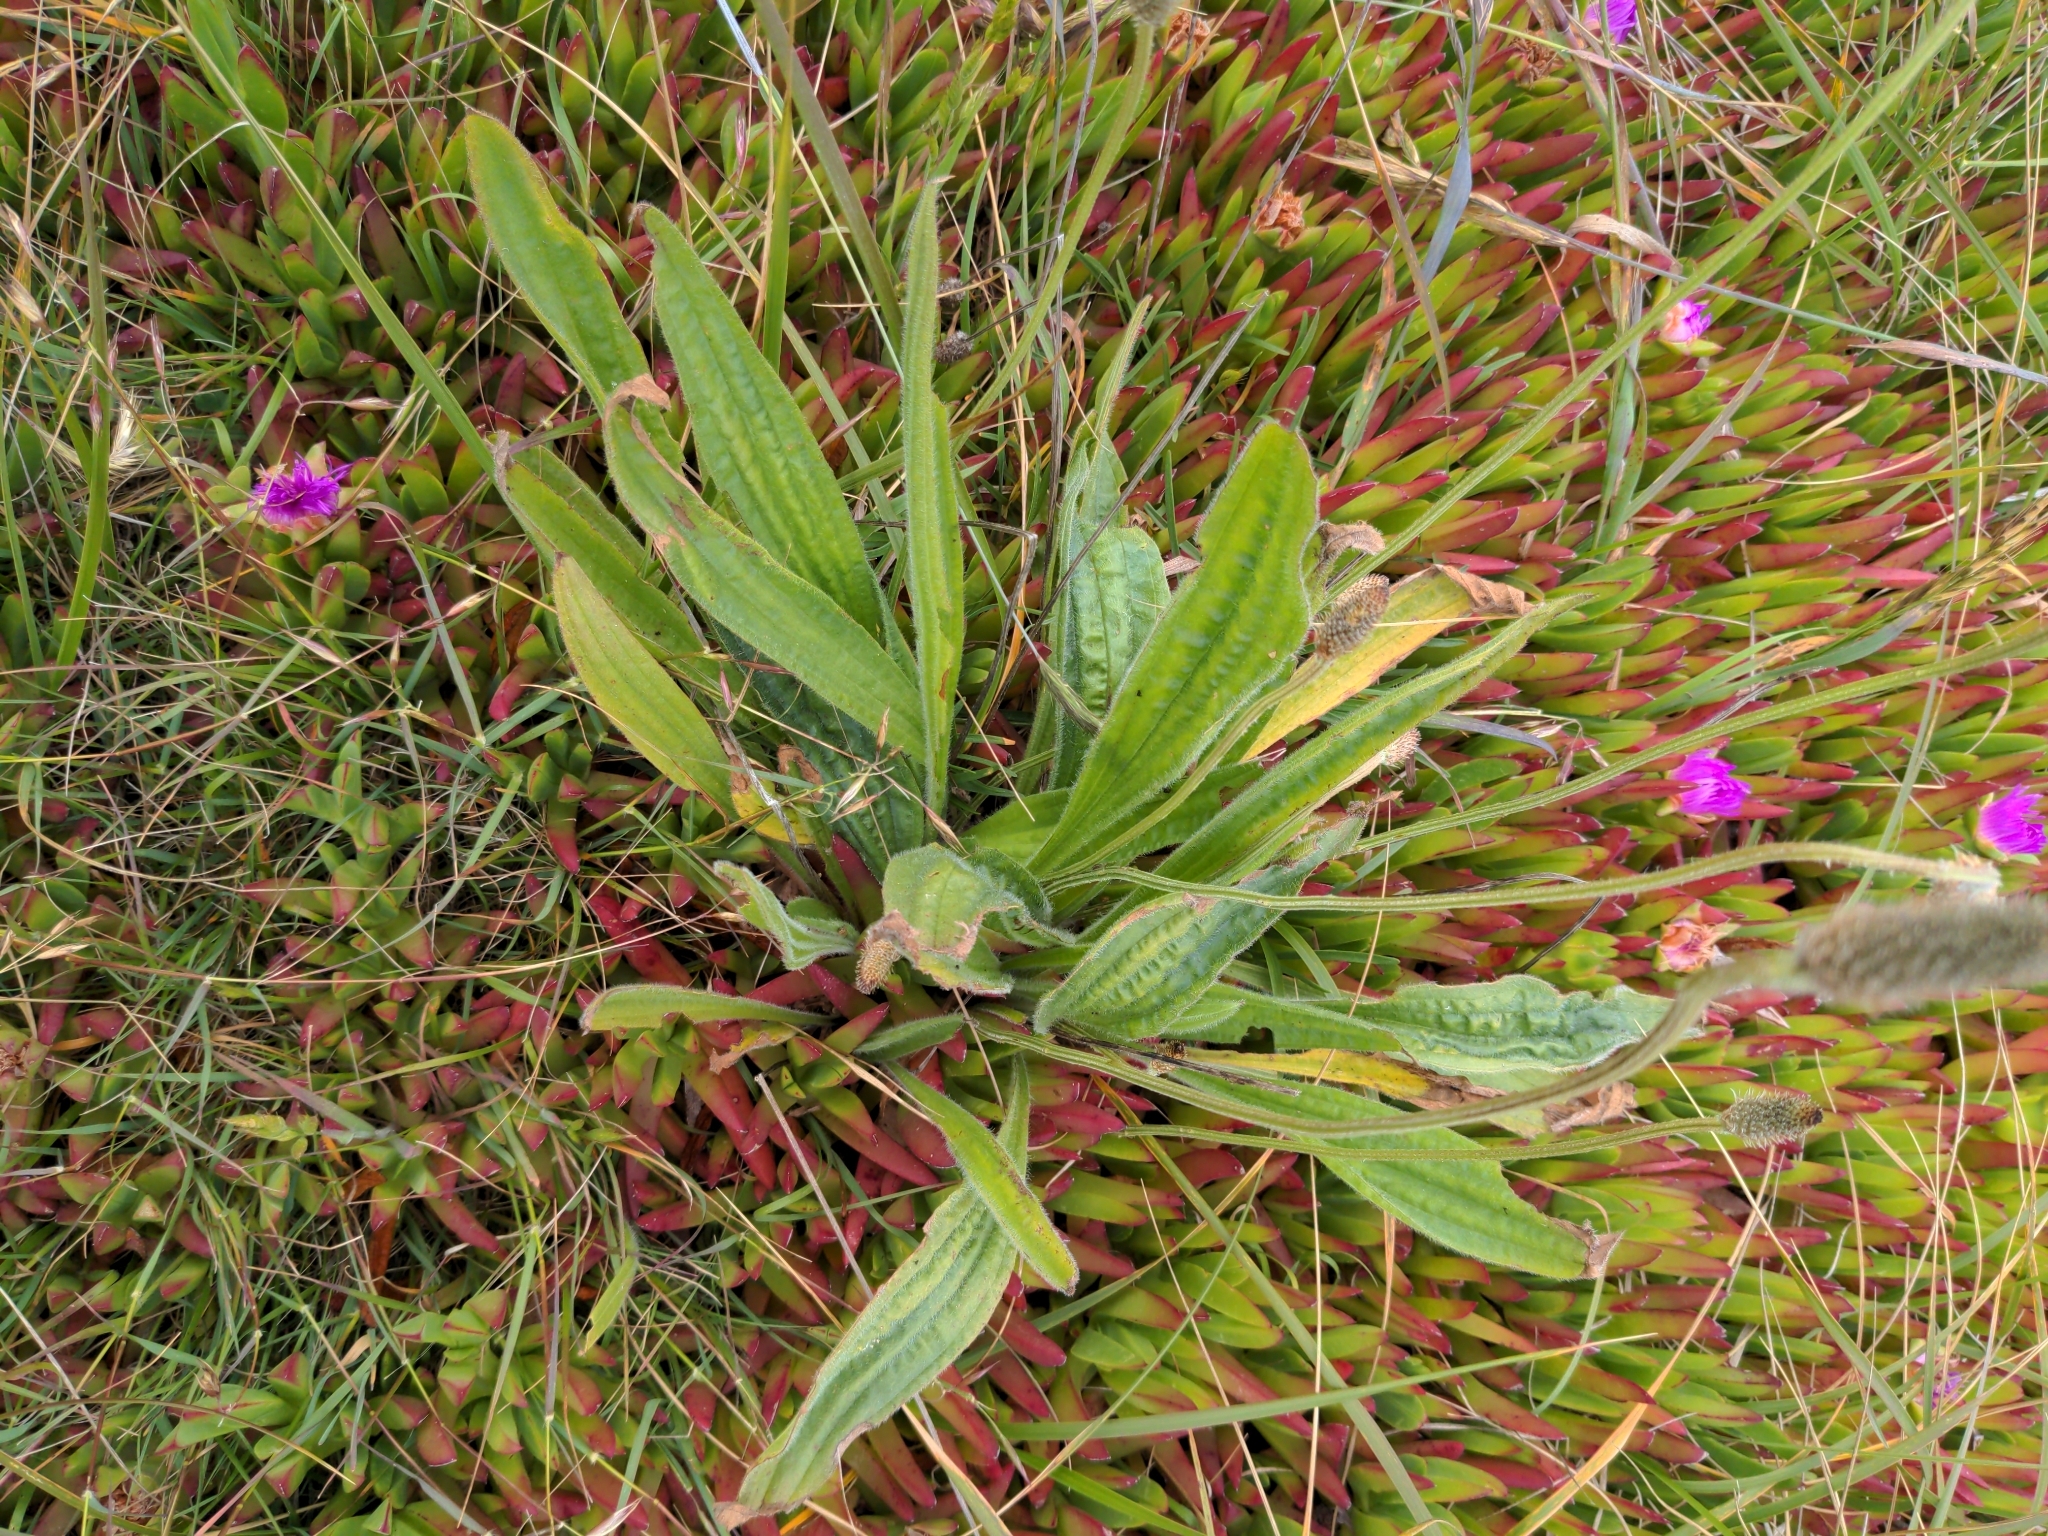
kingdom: Plantae
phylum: Tracheophyta
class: Magnoliopsida
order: Lamiales
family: Plantaginaceae
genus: Plantago
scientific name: Plantago lanceolata
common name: Ribwort plantain
